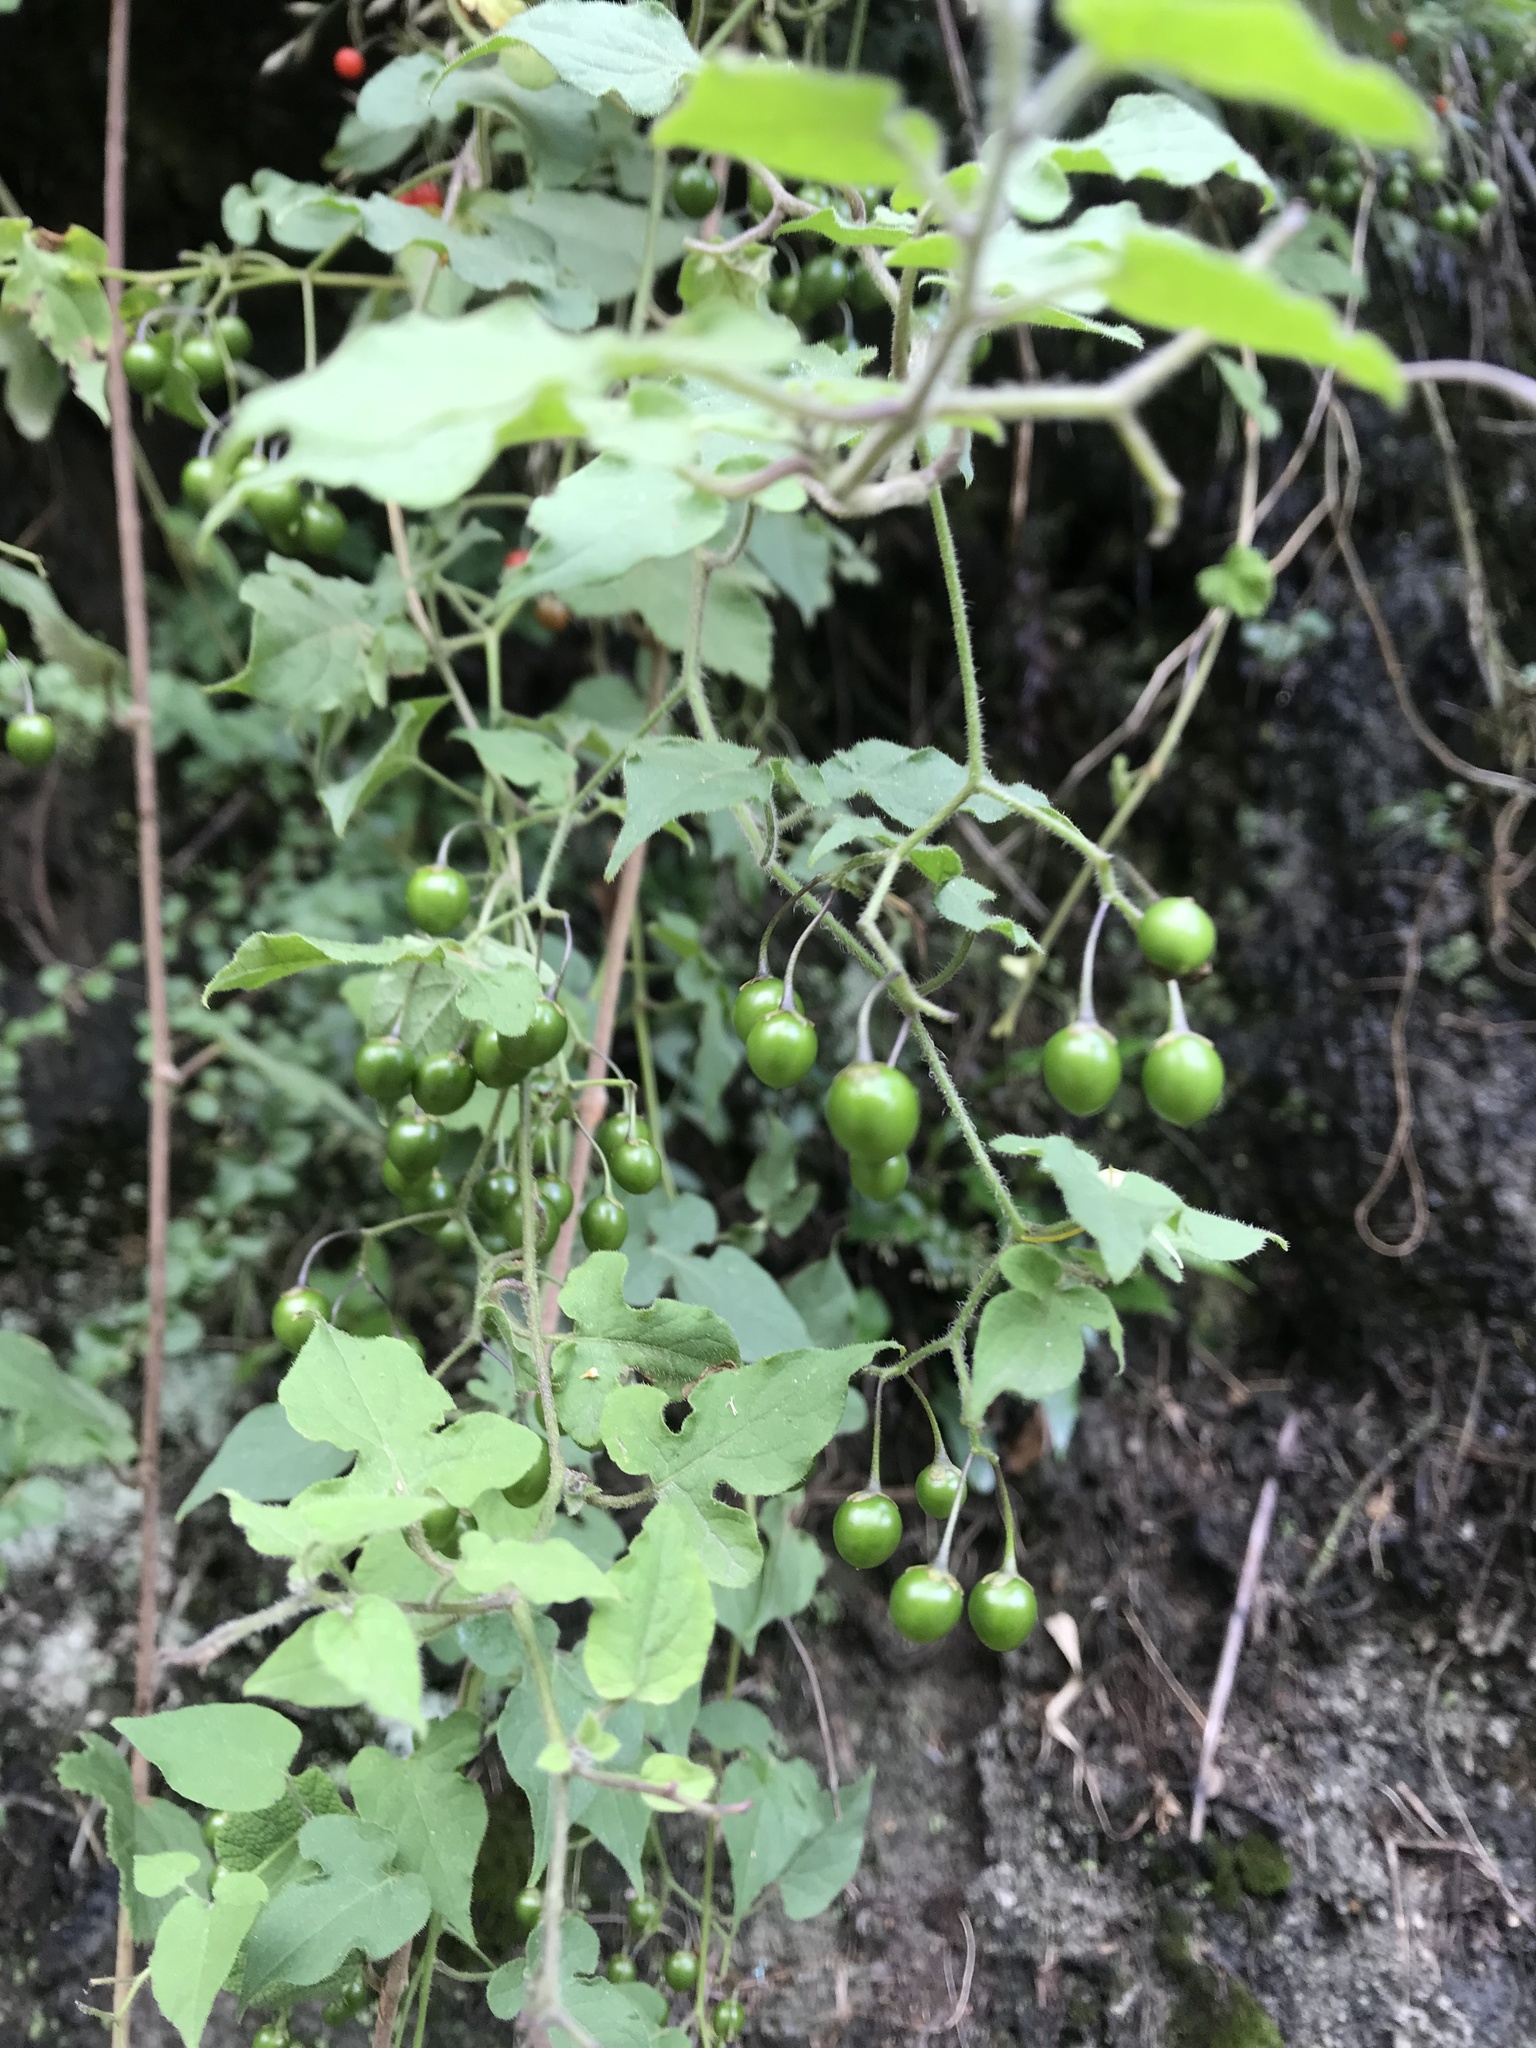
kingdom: Plantae
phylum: Tracheophyta
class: Magnoliopsida
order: Solanales
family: Solanaceae
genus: Solanum
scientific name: Solanum lyratum
